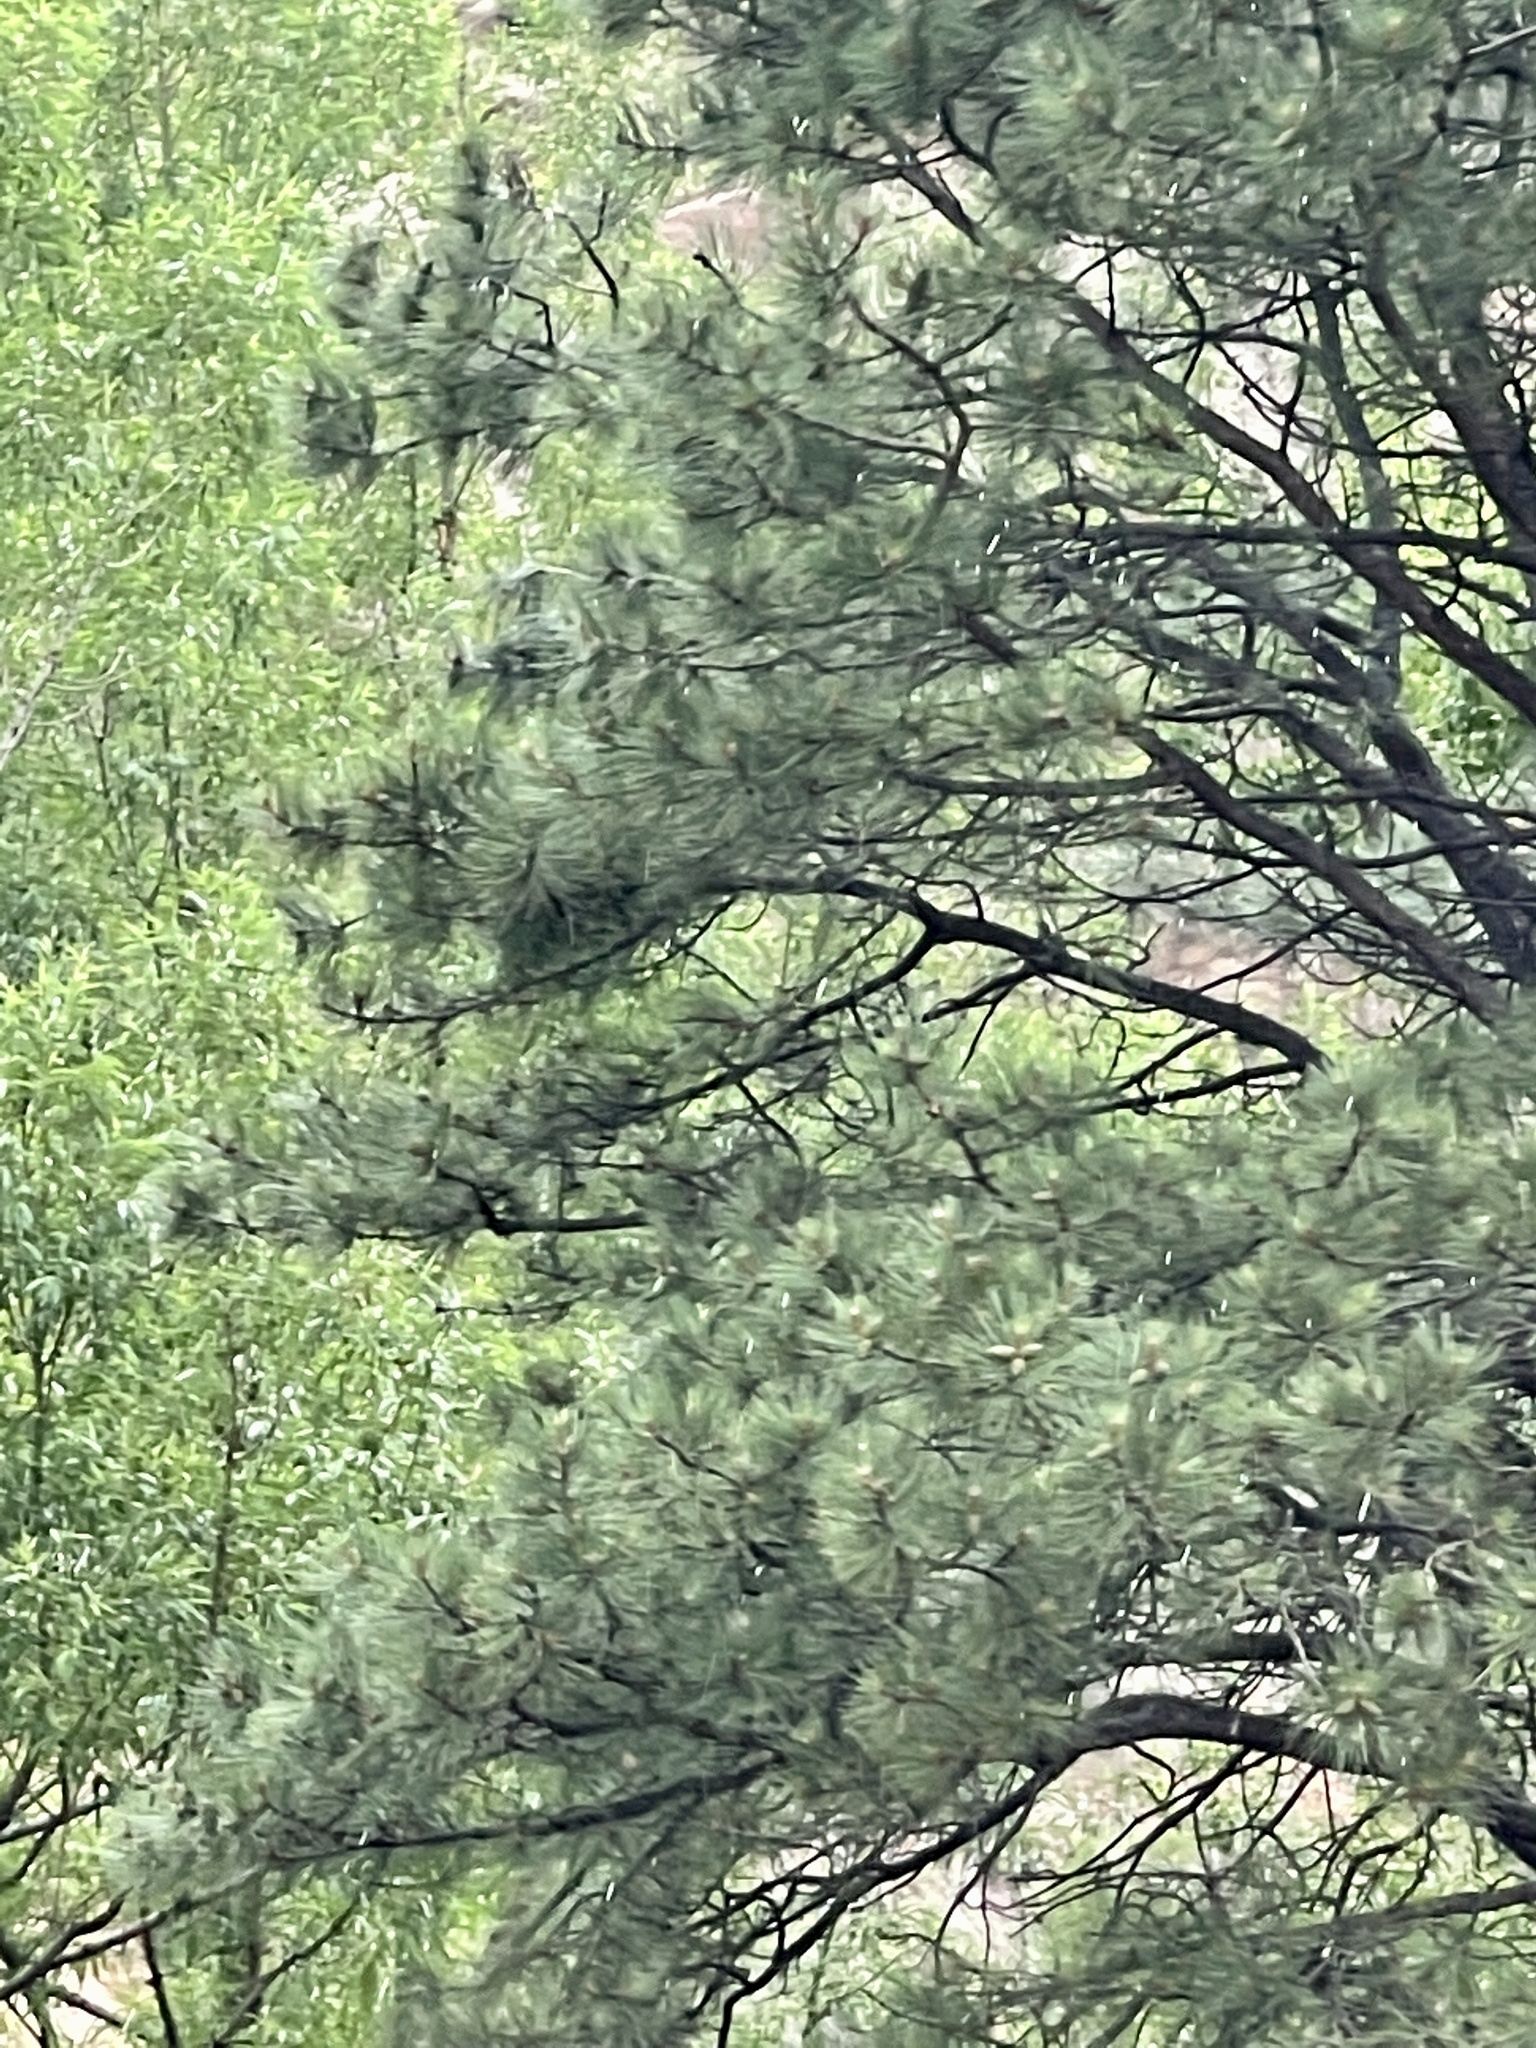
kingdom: Plantae
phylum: Tracheophyta
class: Pinopsida
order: Pinales
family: Pinaceae
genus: Pinus
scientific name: Pinus ponderosa
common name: Western yellow-pine
